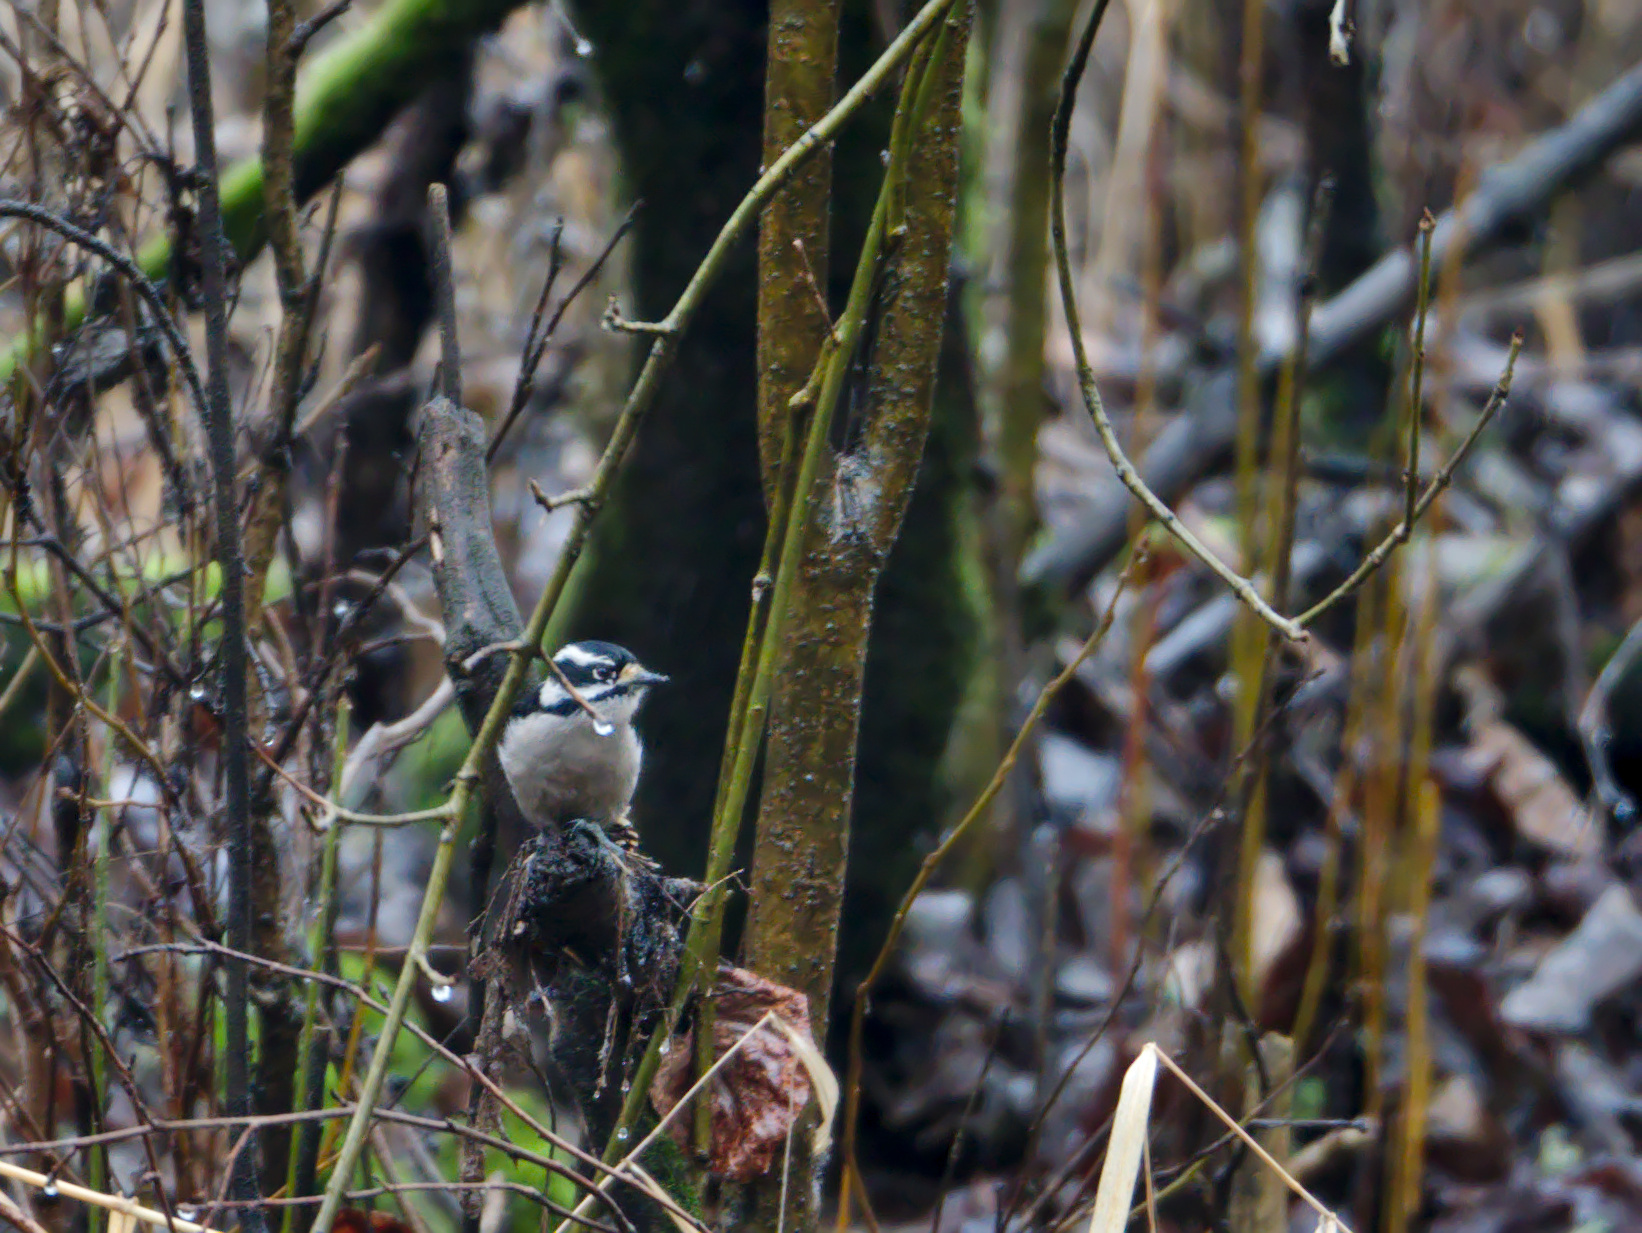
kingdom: Animalia
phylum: Chordata
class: Aves
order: Piciformes
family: Picidae
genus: Dryobates
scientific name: Dryobates pubescens
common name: Downy woodpecker
